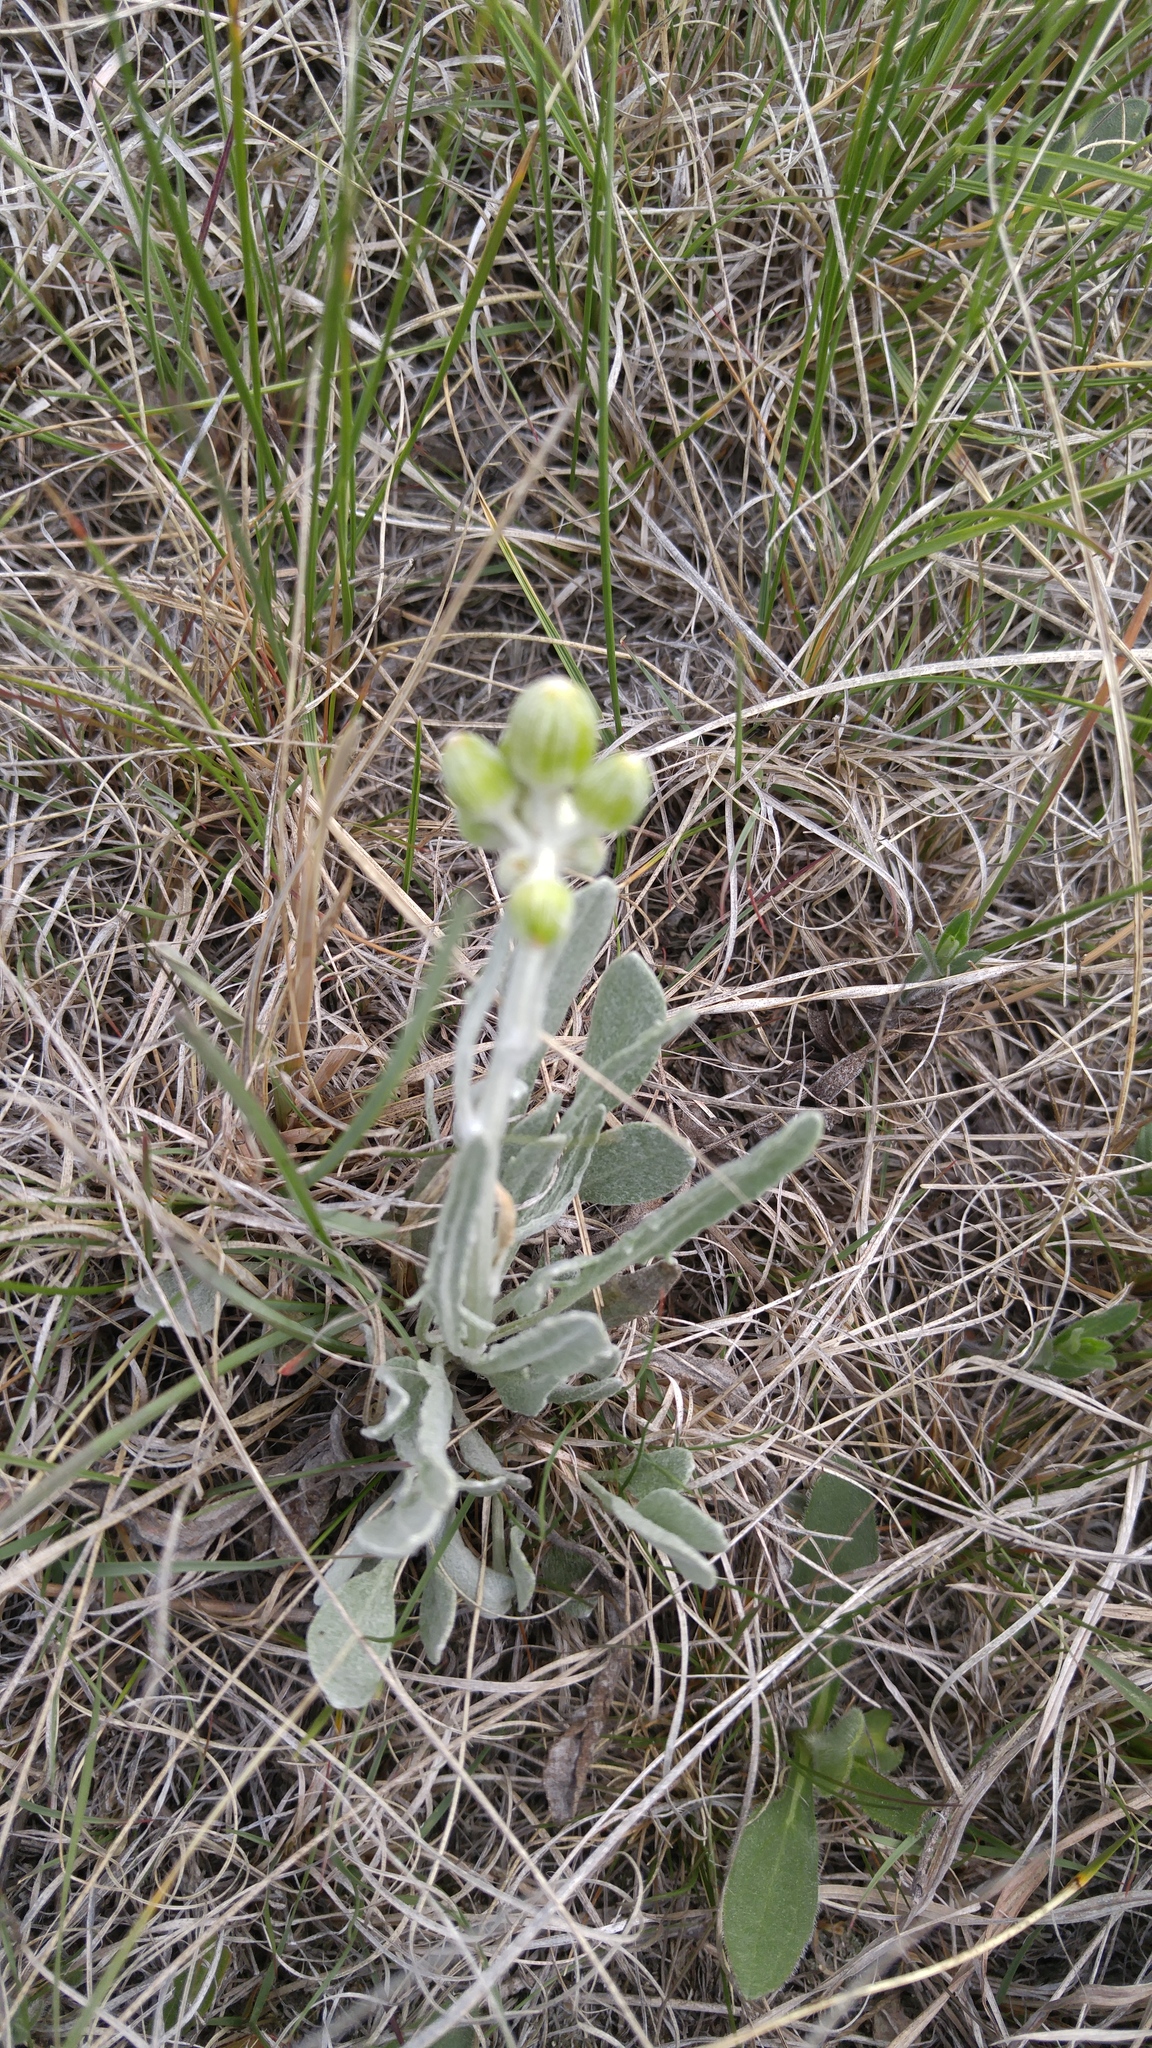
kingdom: Plantae
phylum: Tracheophyta
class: Magnoliopsida
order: Asterales
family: Asteraceae
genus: Packera
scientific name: Packera cana
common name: Woolly groundsel
